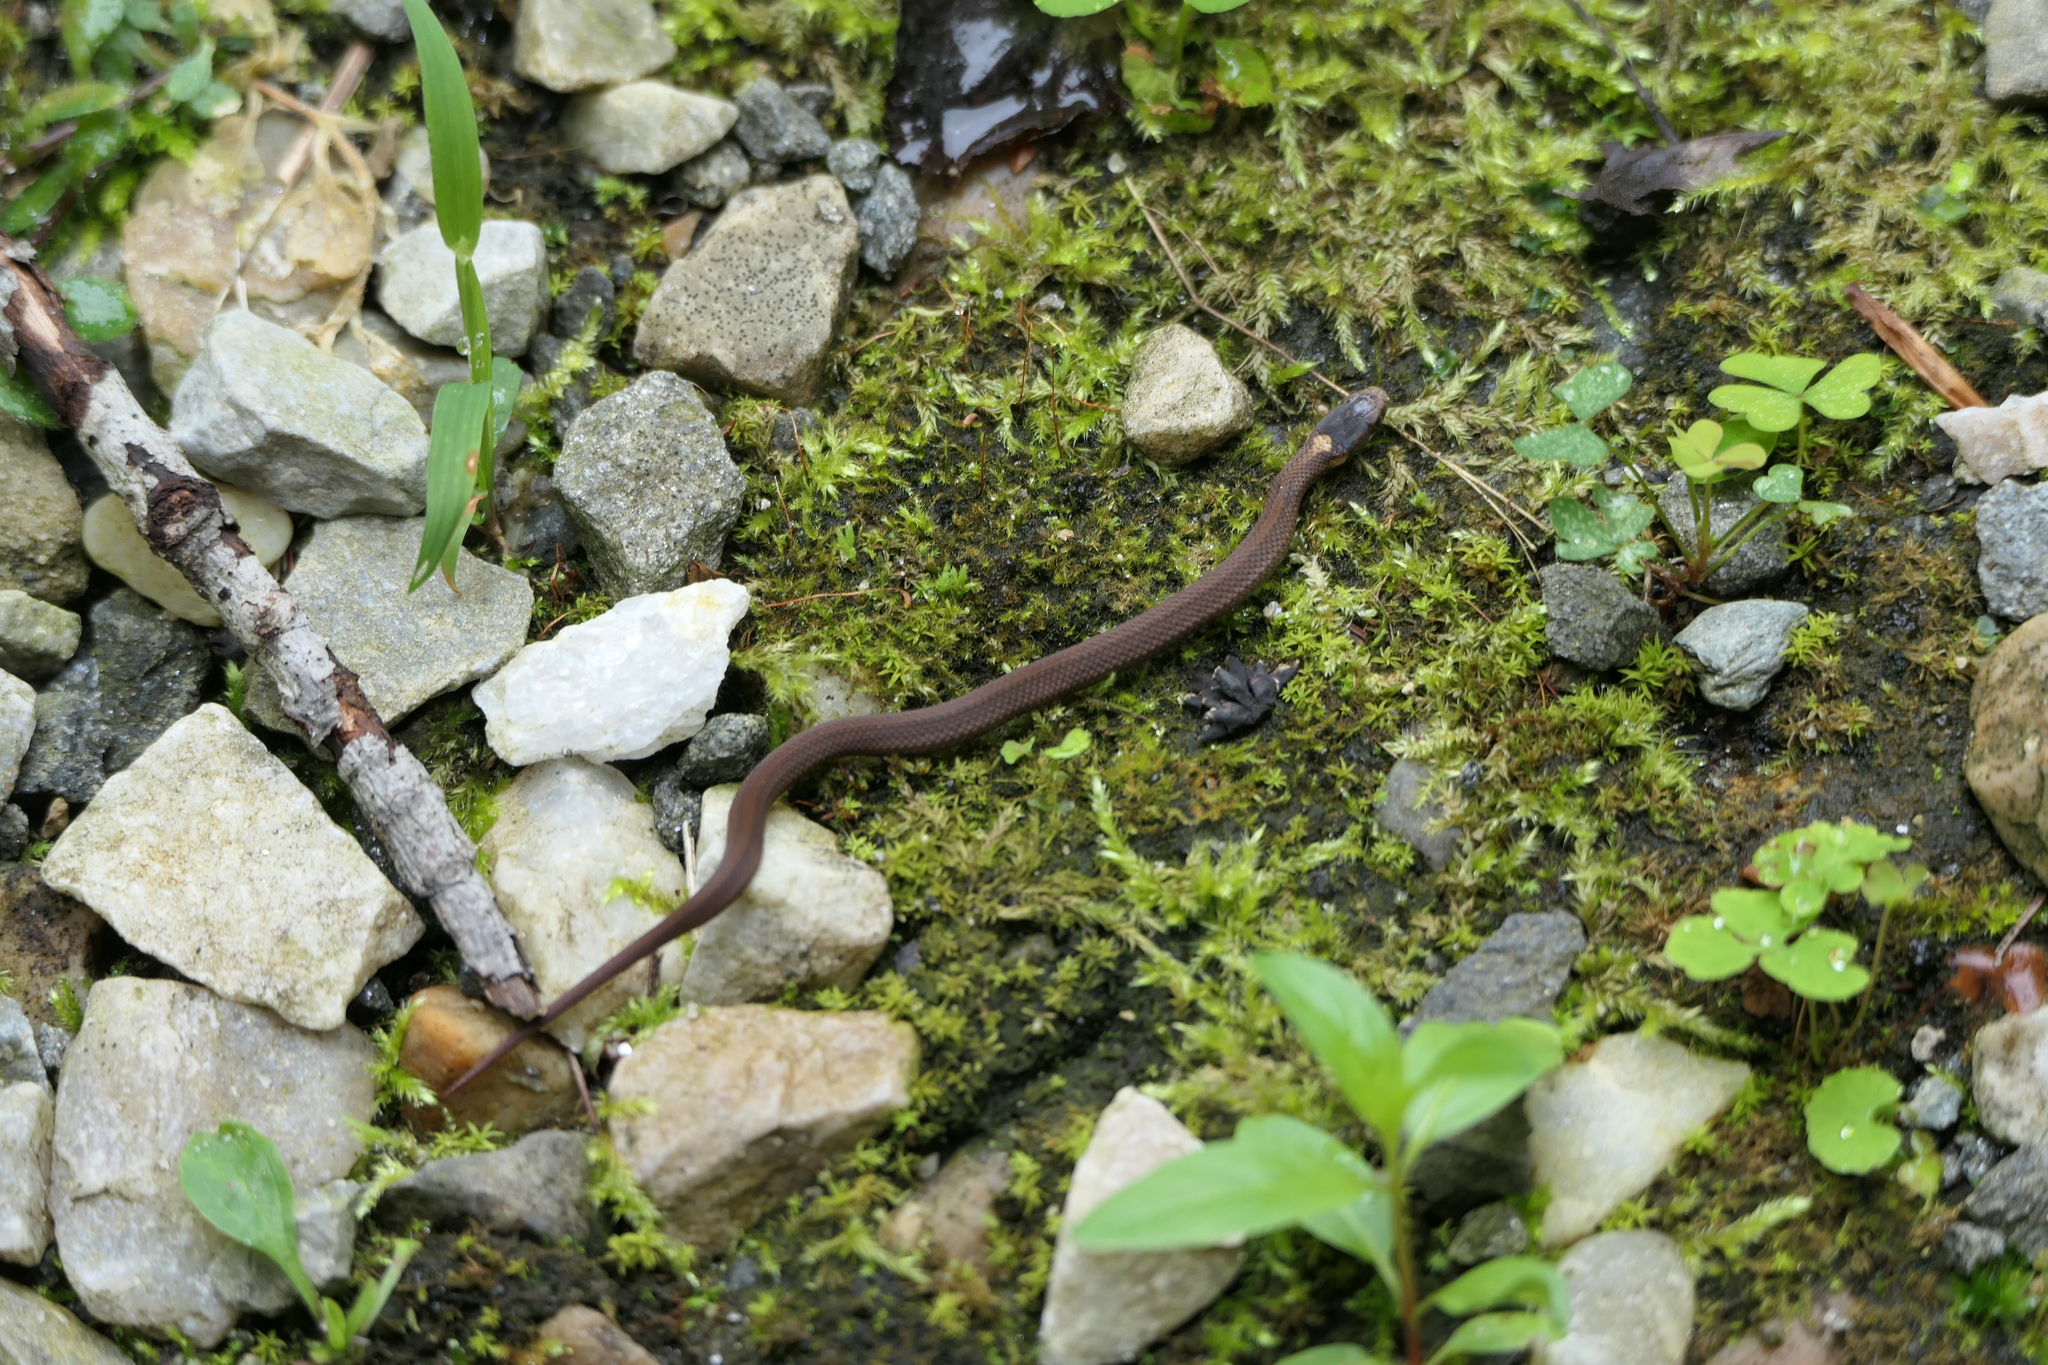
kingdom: Animalia
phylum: Chordata
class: Squamata
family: Colubridae
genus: Storeria
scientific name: Storeria occipitomaculata
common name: Redbelly snake
